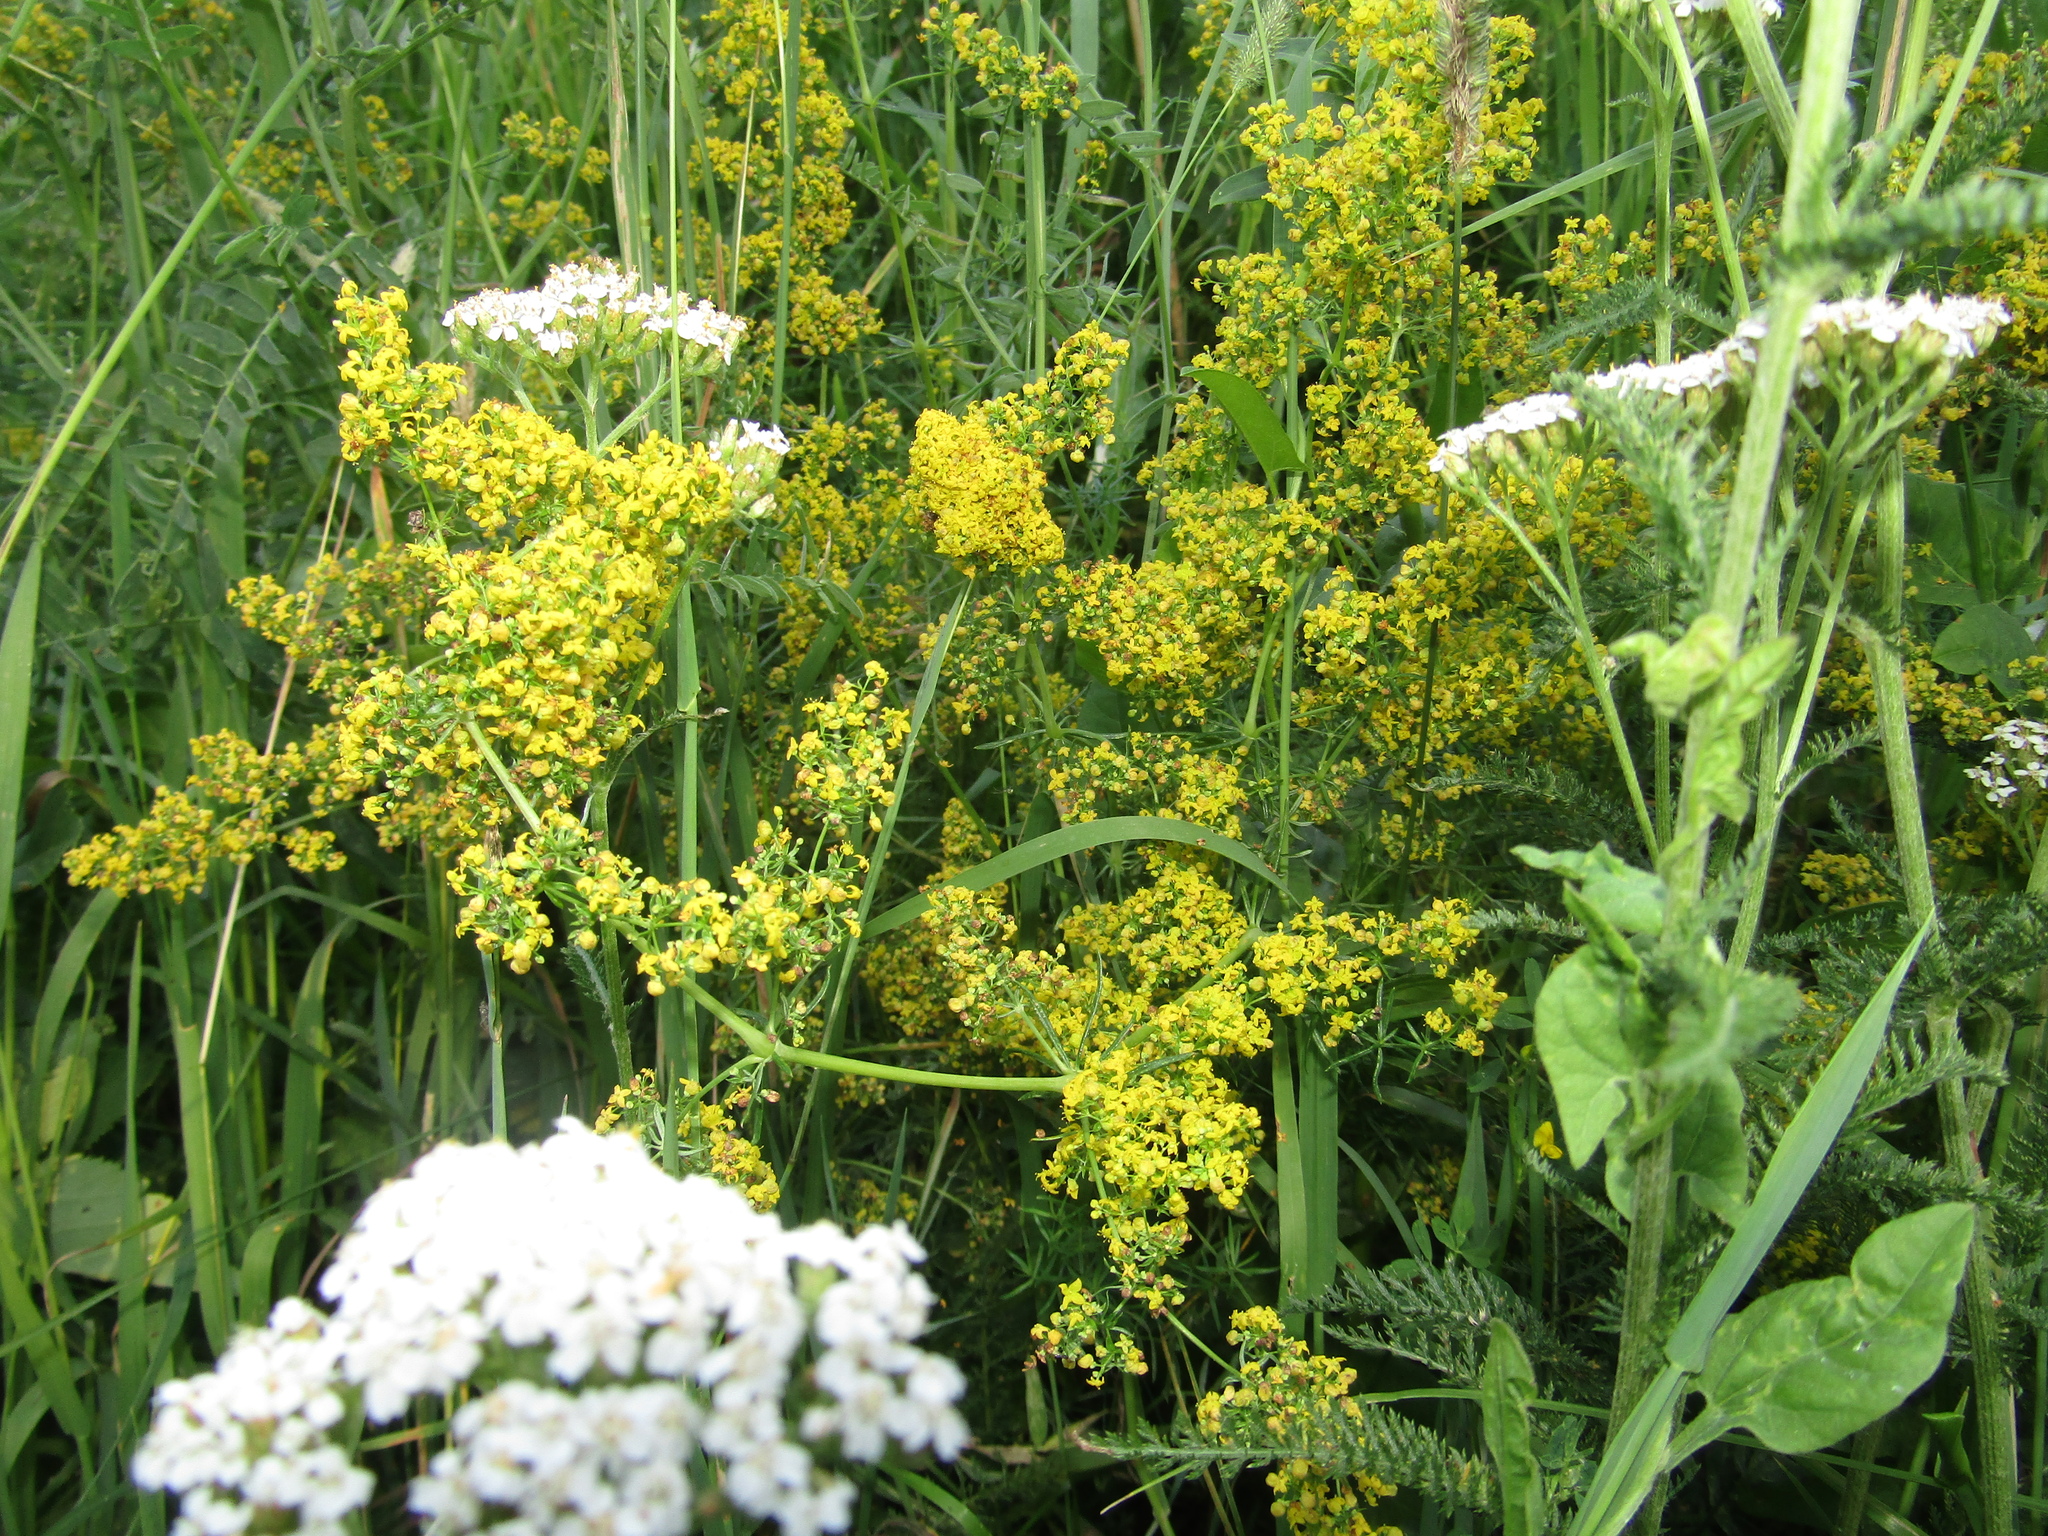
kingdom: Plantae
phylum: Tracheophyta
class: Magnoliopsida
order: Gentianales
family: Rubiaceae
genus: Galium
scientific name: Galium verum
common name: Lady's bedstraw
